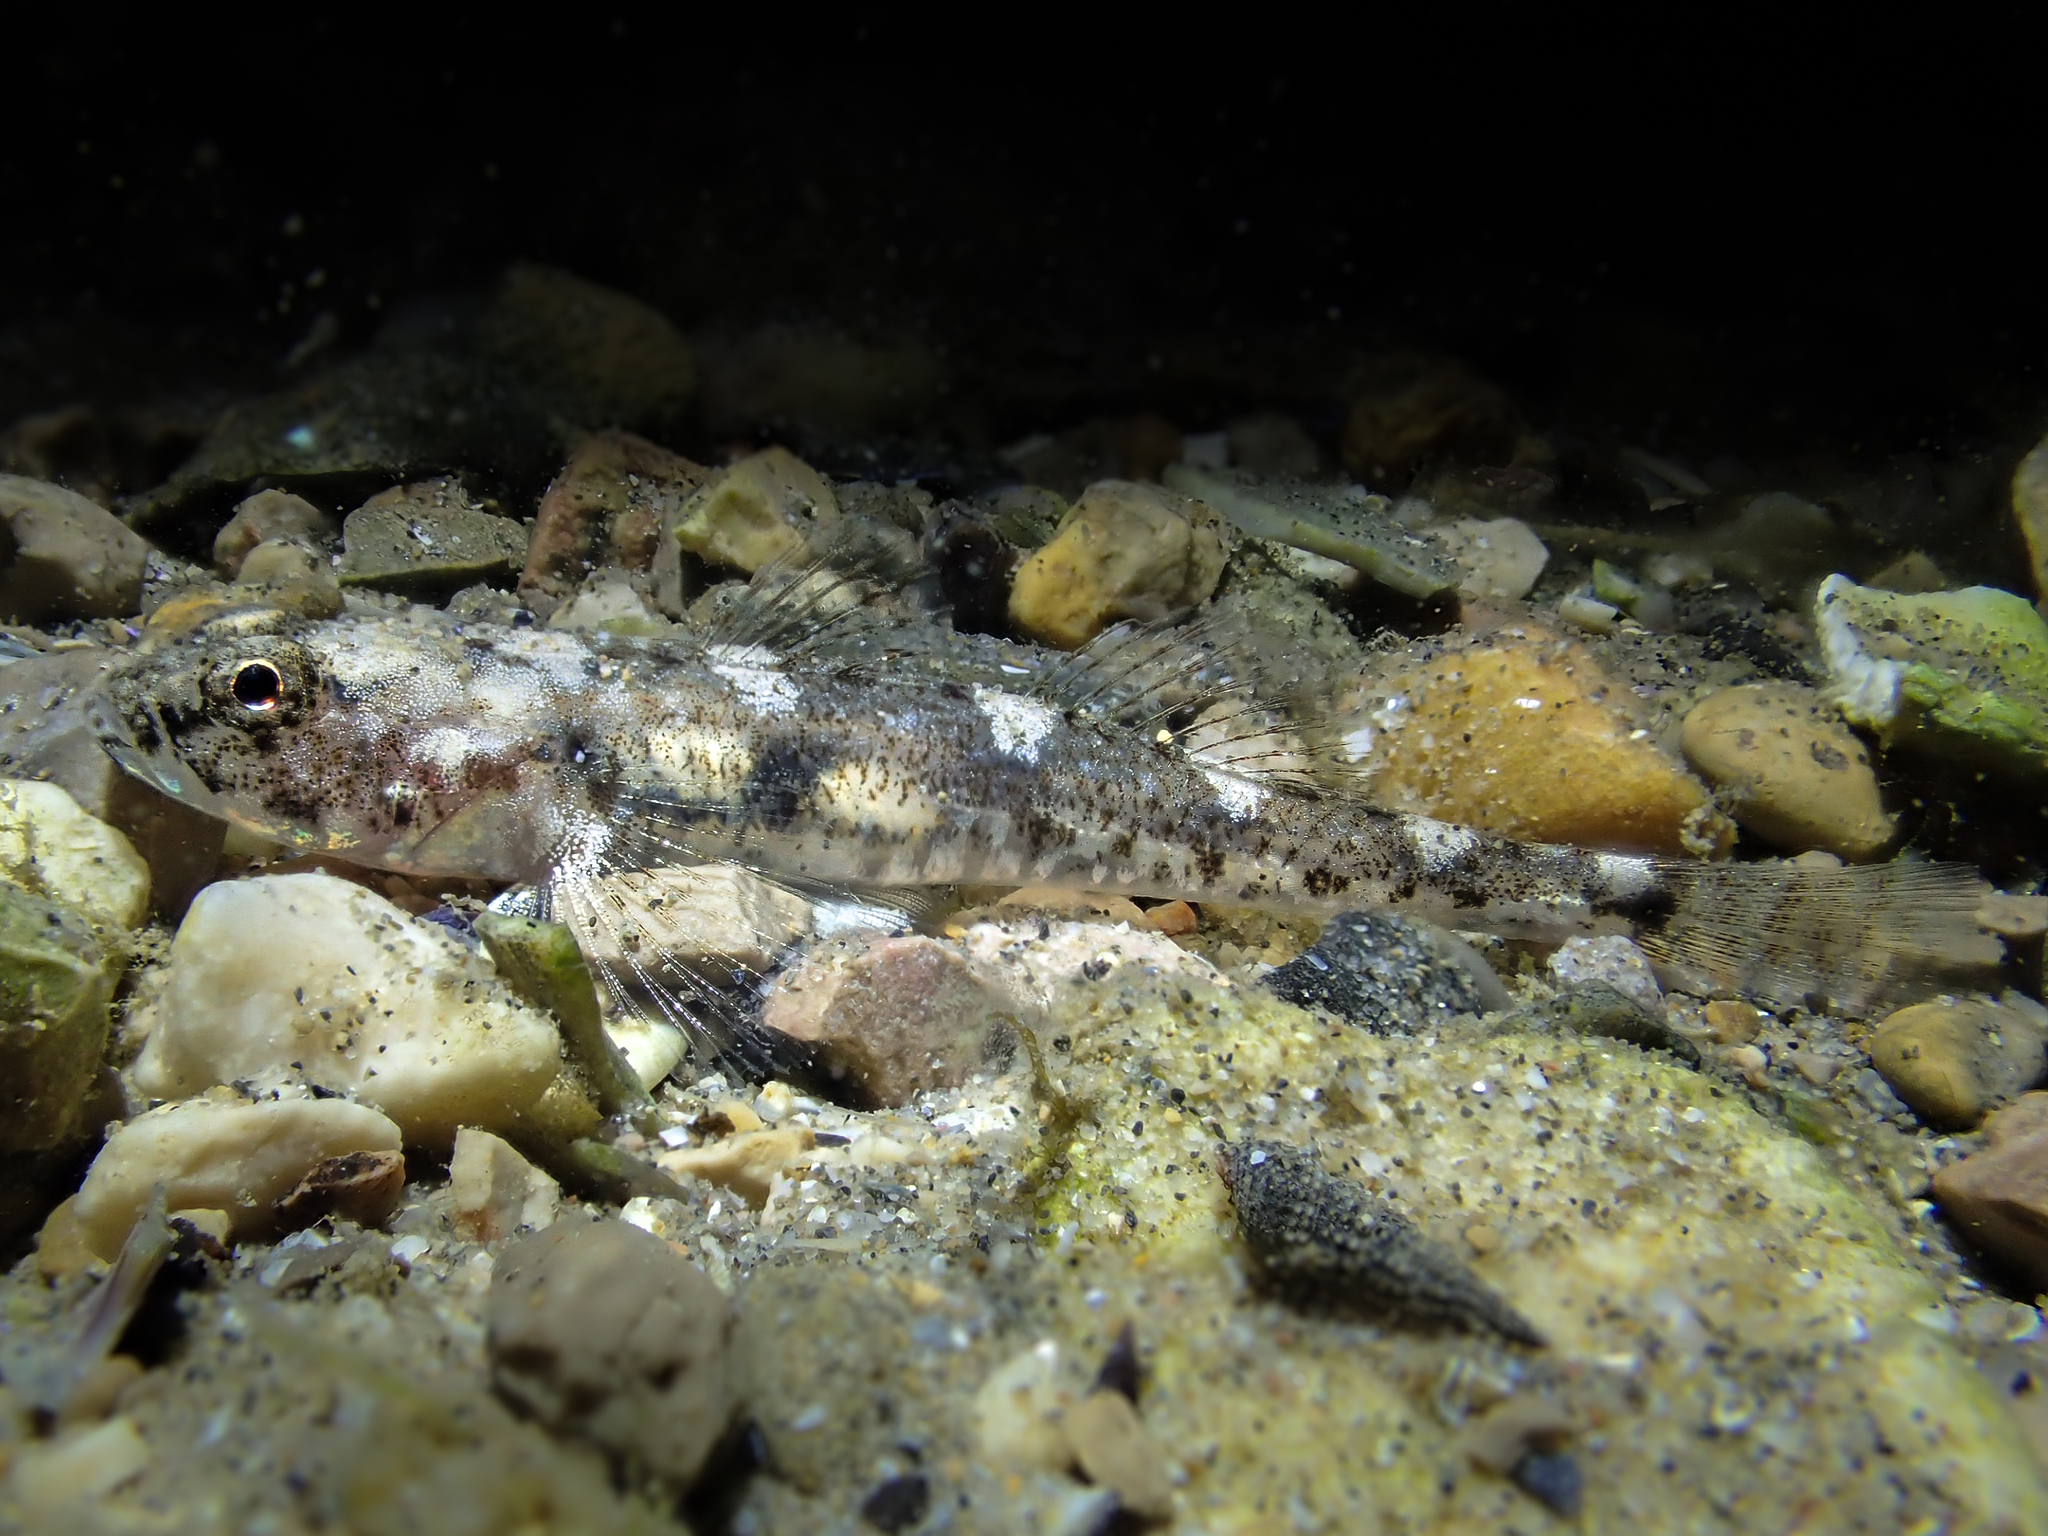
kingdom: Animalia
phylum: Chordata
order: Perciformes
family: Gobiidae
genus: Pomatoschistus
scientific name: Pomatoschistus marmoratus
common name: Marbled goby
